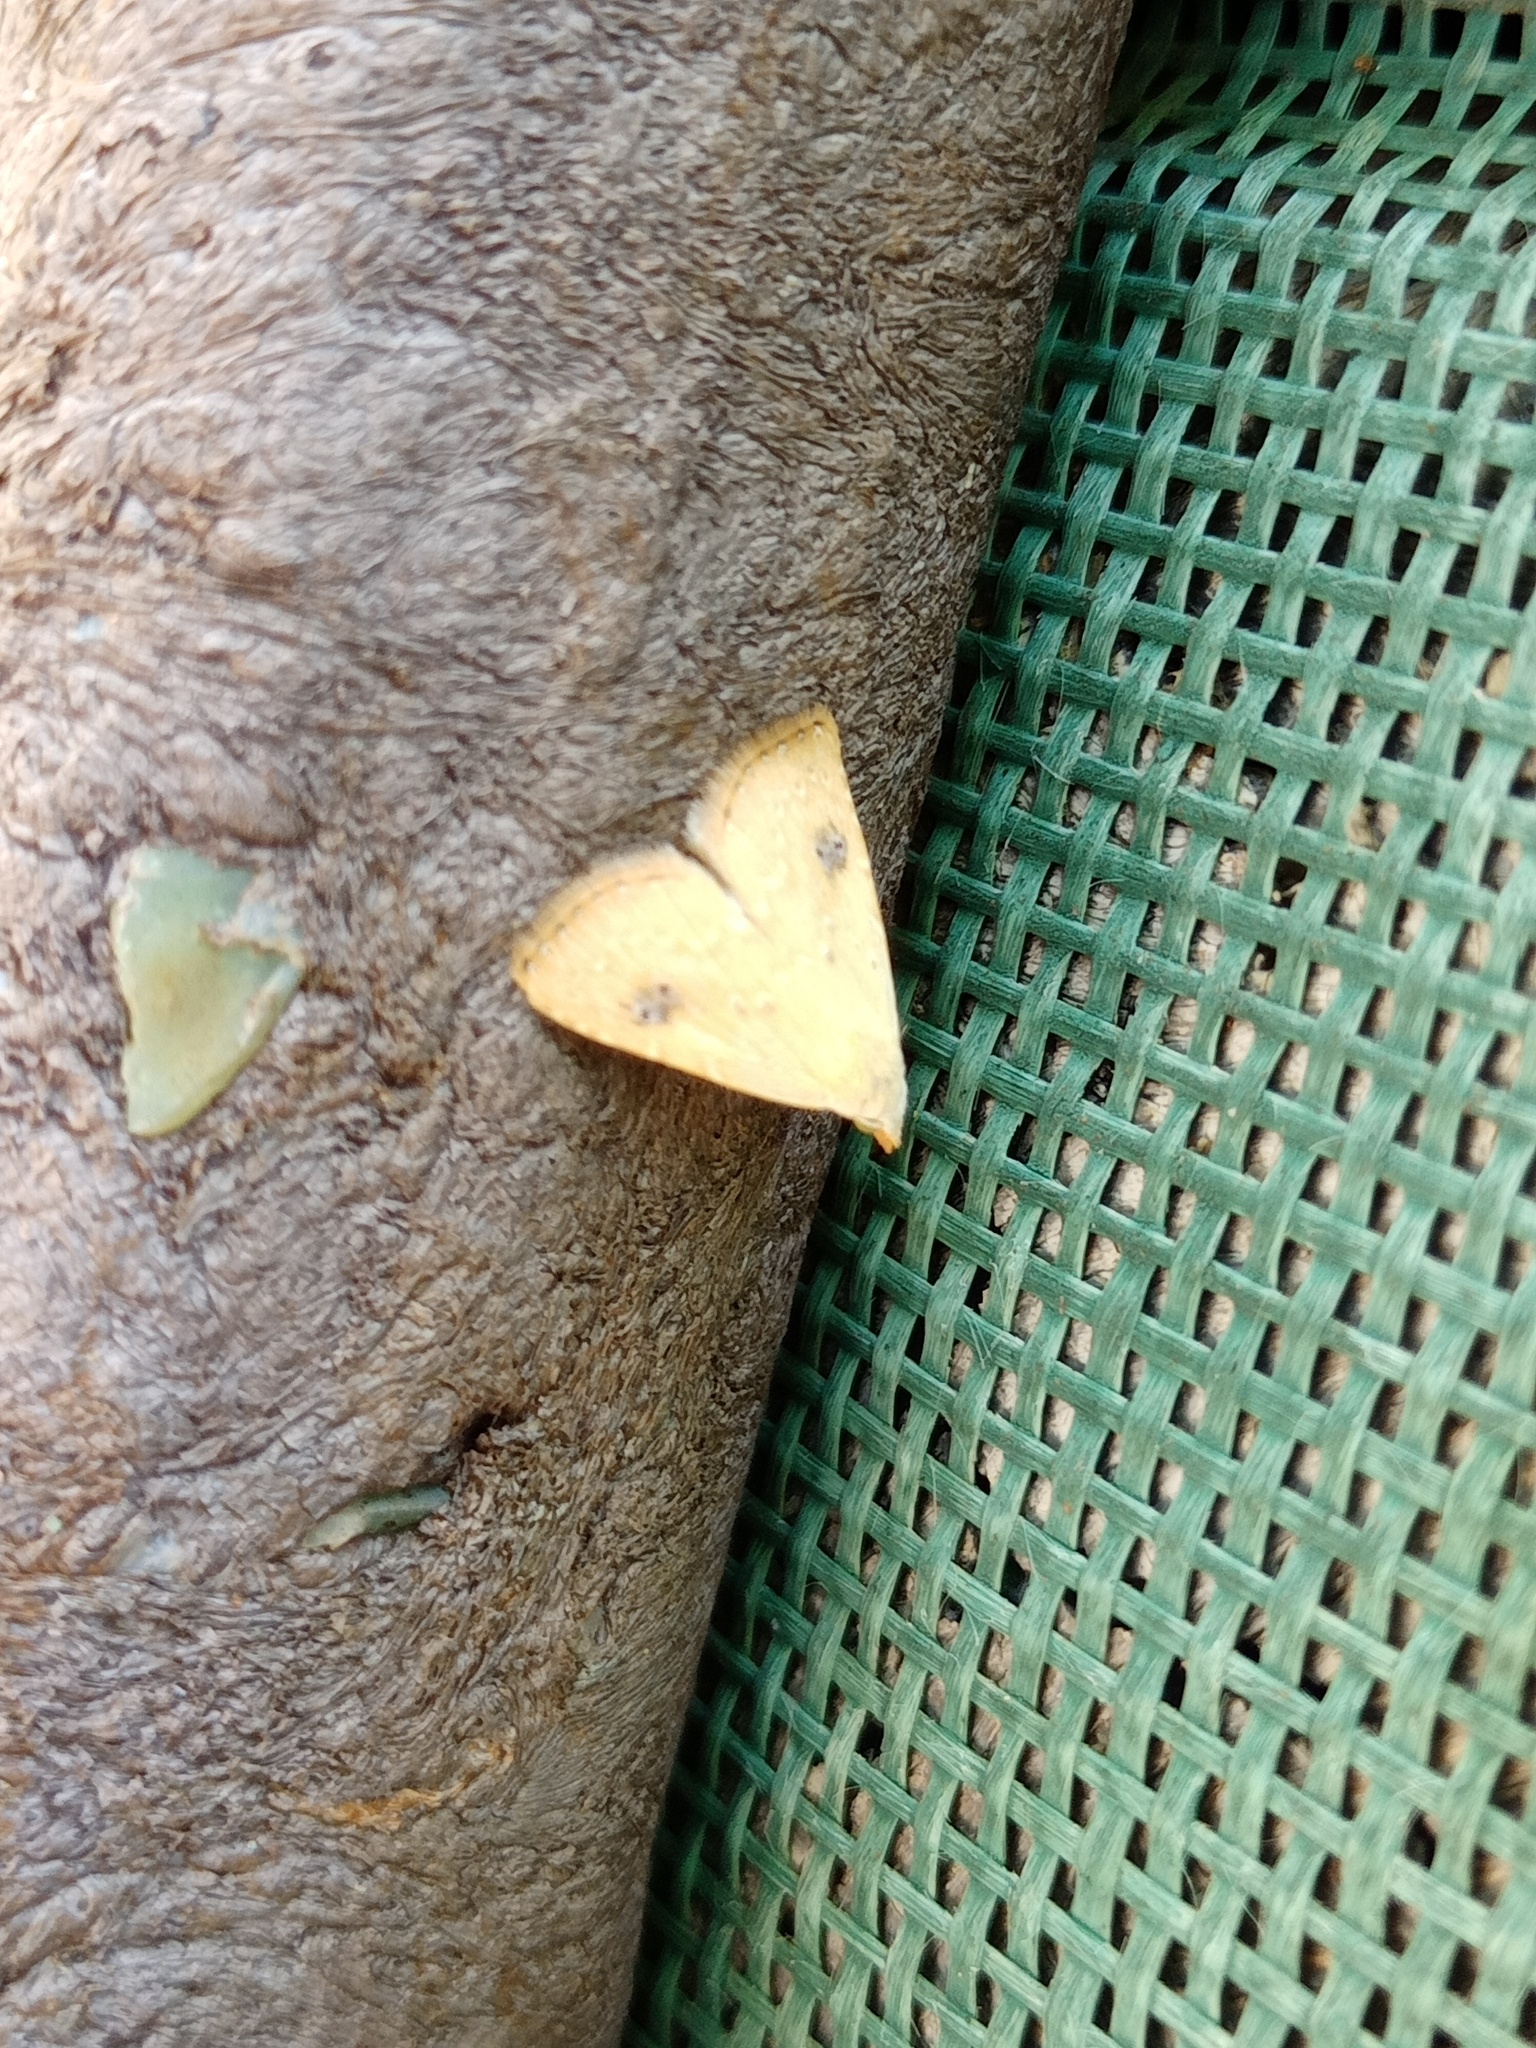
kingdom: Animalia
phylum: Arthropoda
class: Insecta
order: Lepidoptera
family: Erebidae
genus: Rivula
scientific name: Rivula sericealis
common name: Straw dot
